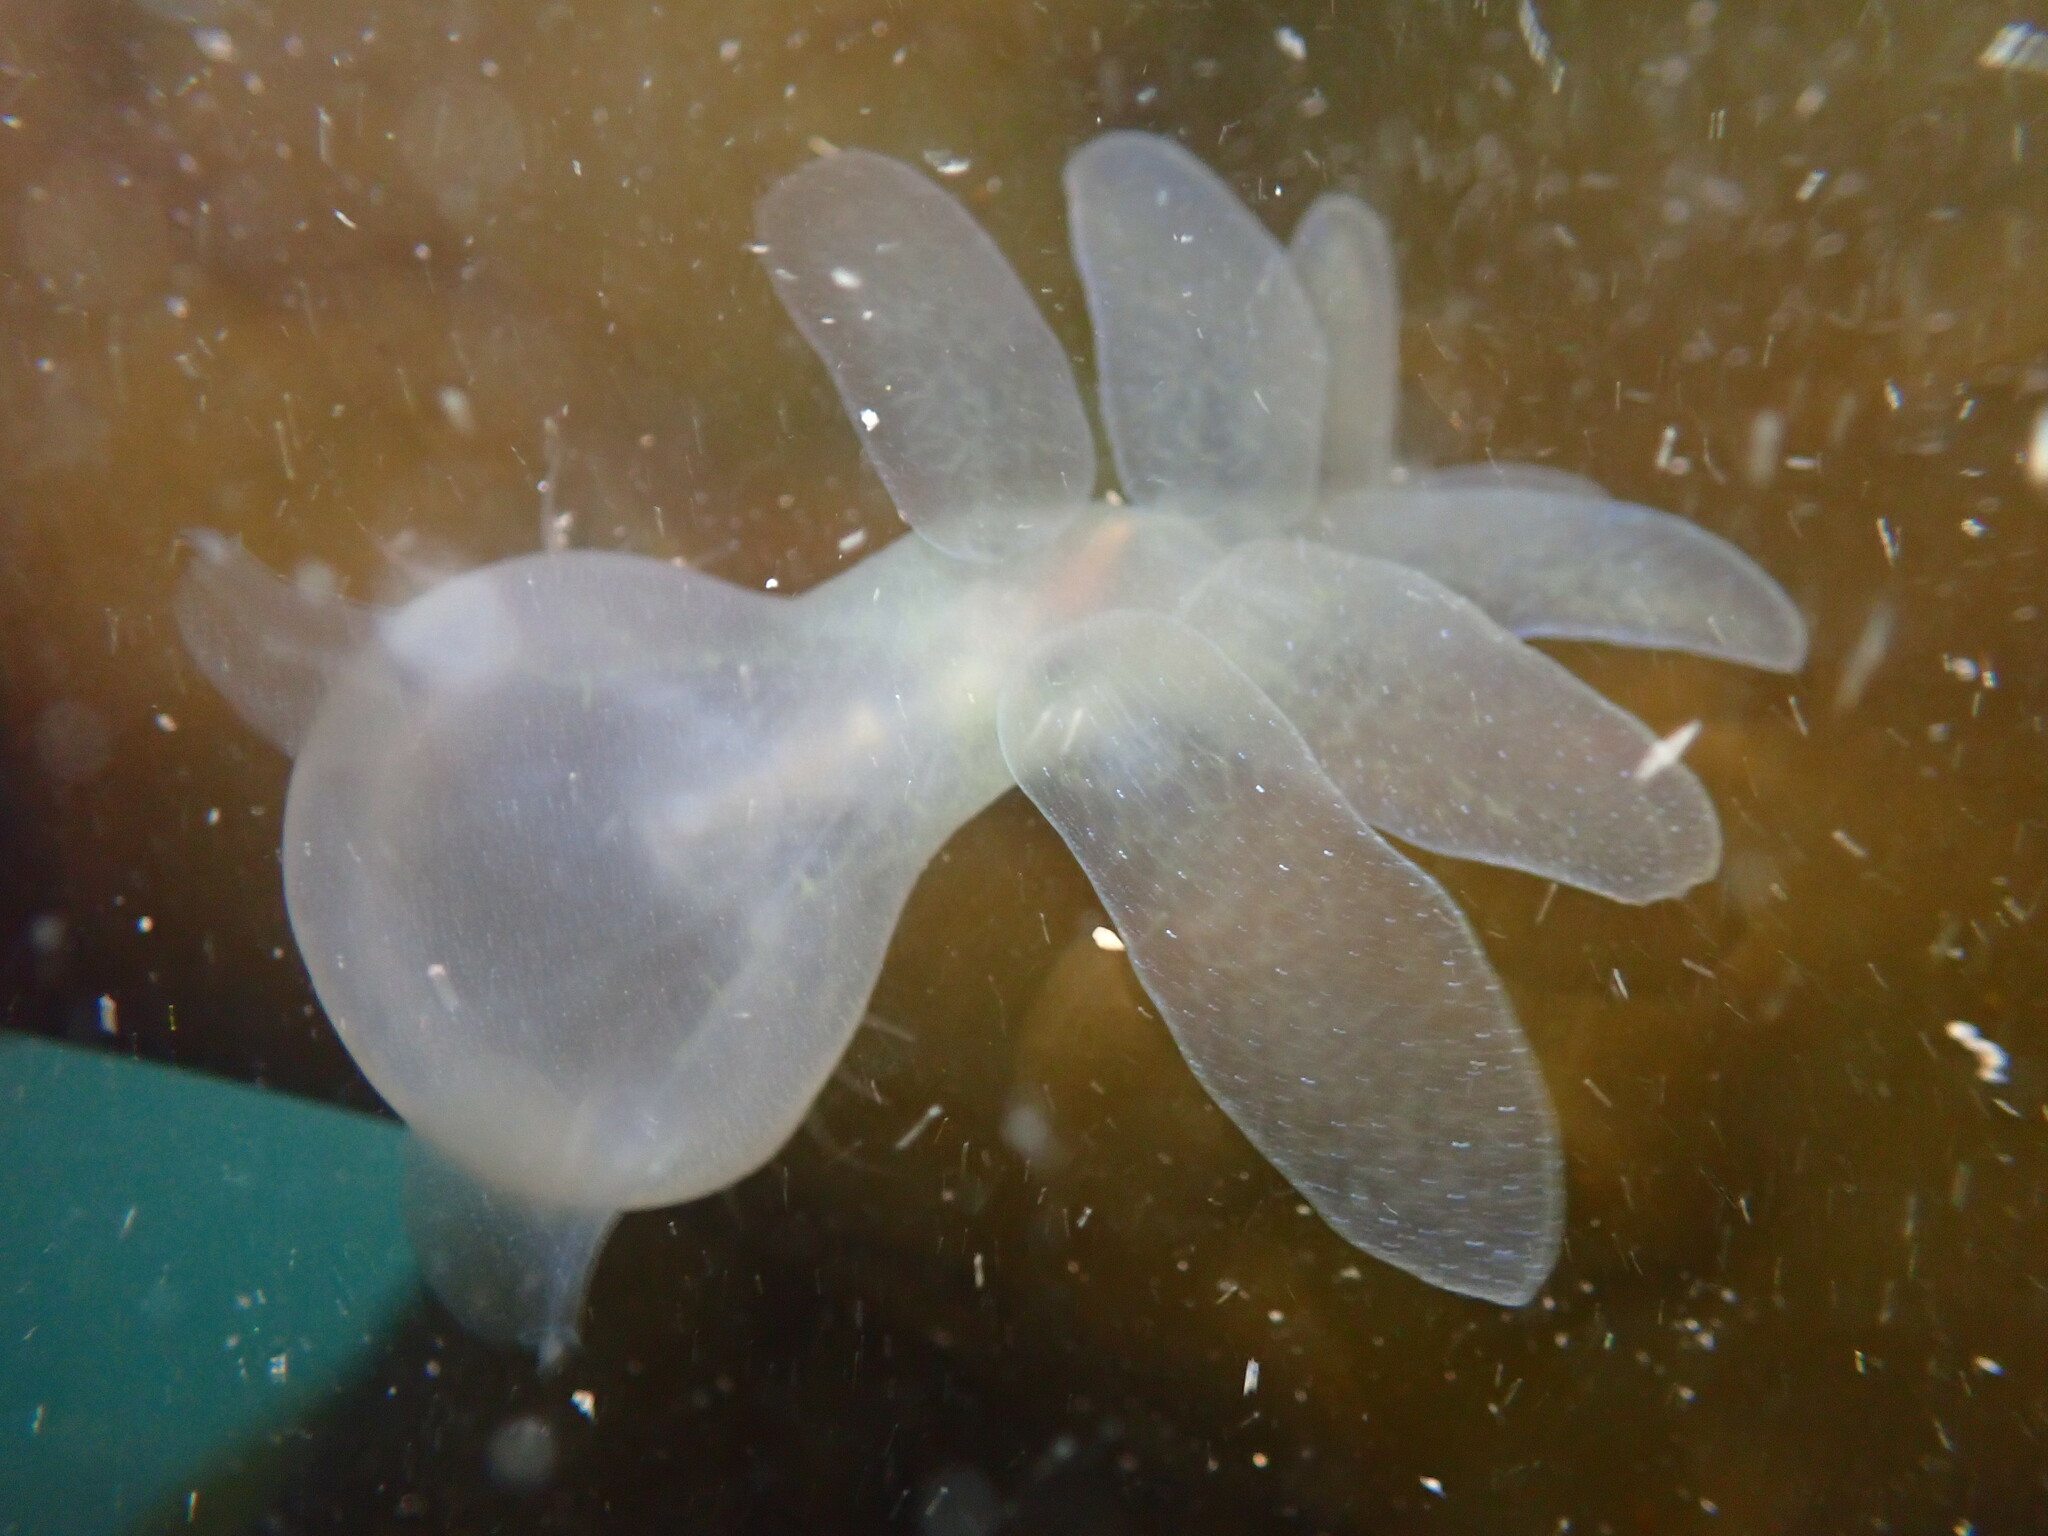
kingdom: Animalia
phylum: Mollusca
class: Gastropoda
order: Nudibranchia
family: Tethydidae
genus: Melibe
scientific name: Melibe leonina
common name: Lion nudibranch
